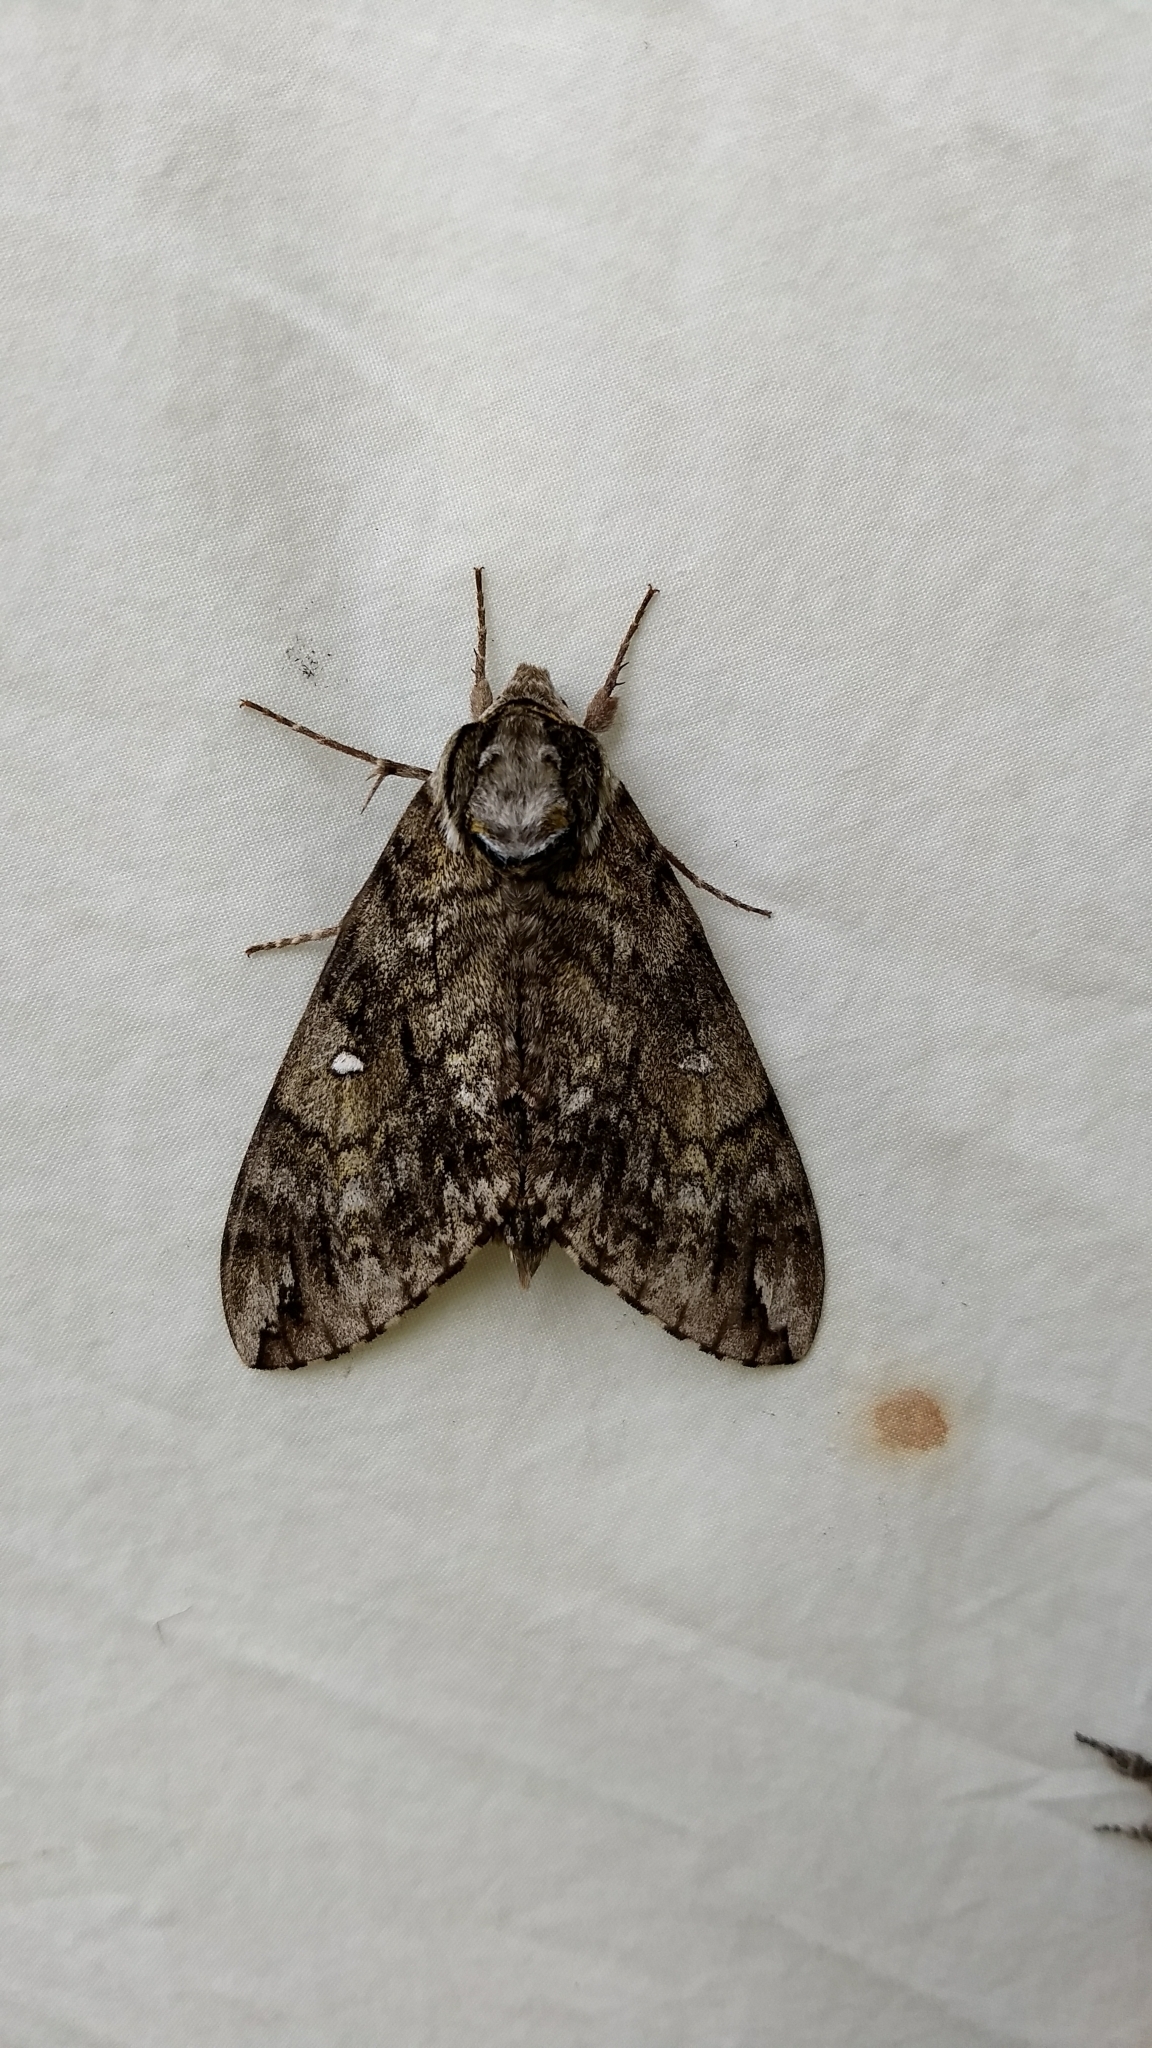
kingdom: Animalia
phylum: Arthropoda
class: Insecta
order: Lepidoptera
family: Sphingidae
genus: Ceratomia
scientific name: Ceratomia undulosa
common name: Waved sphinx
